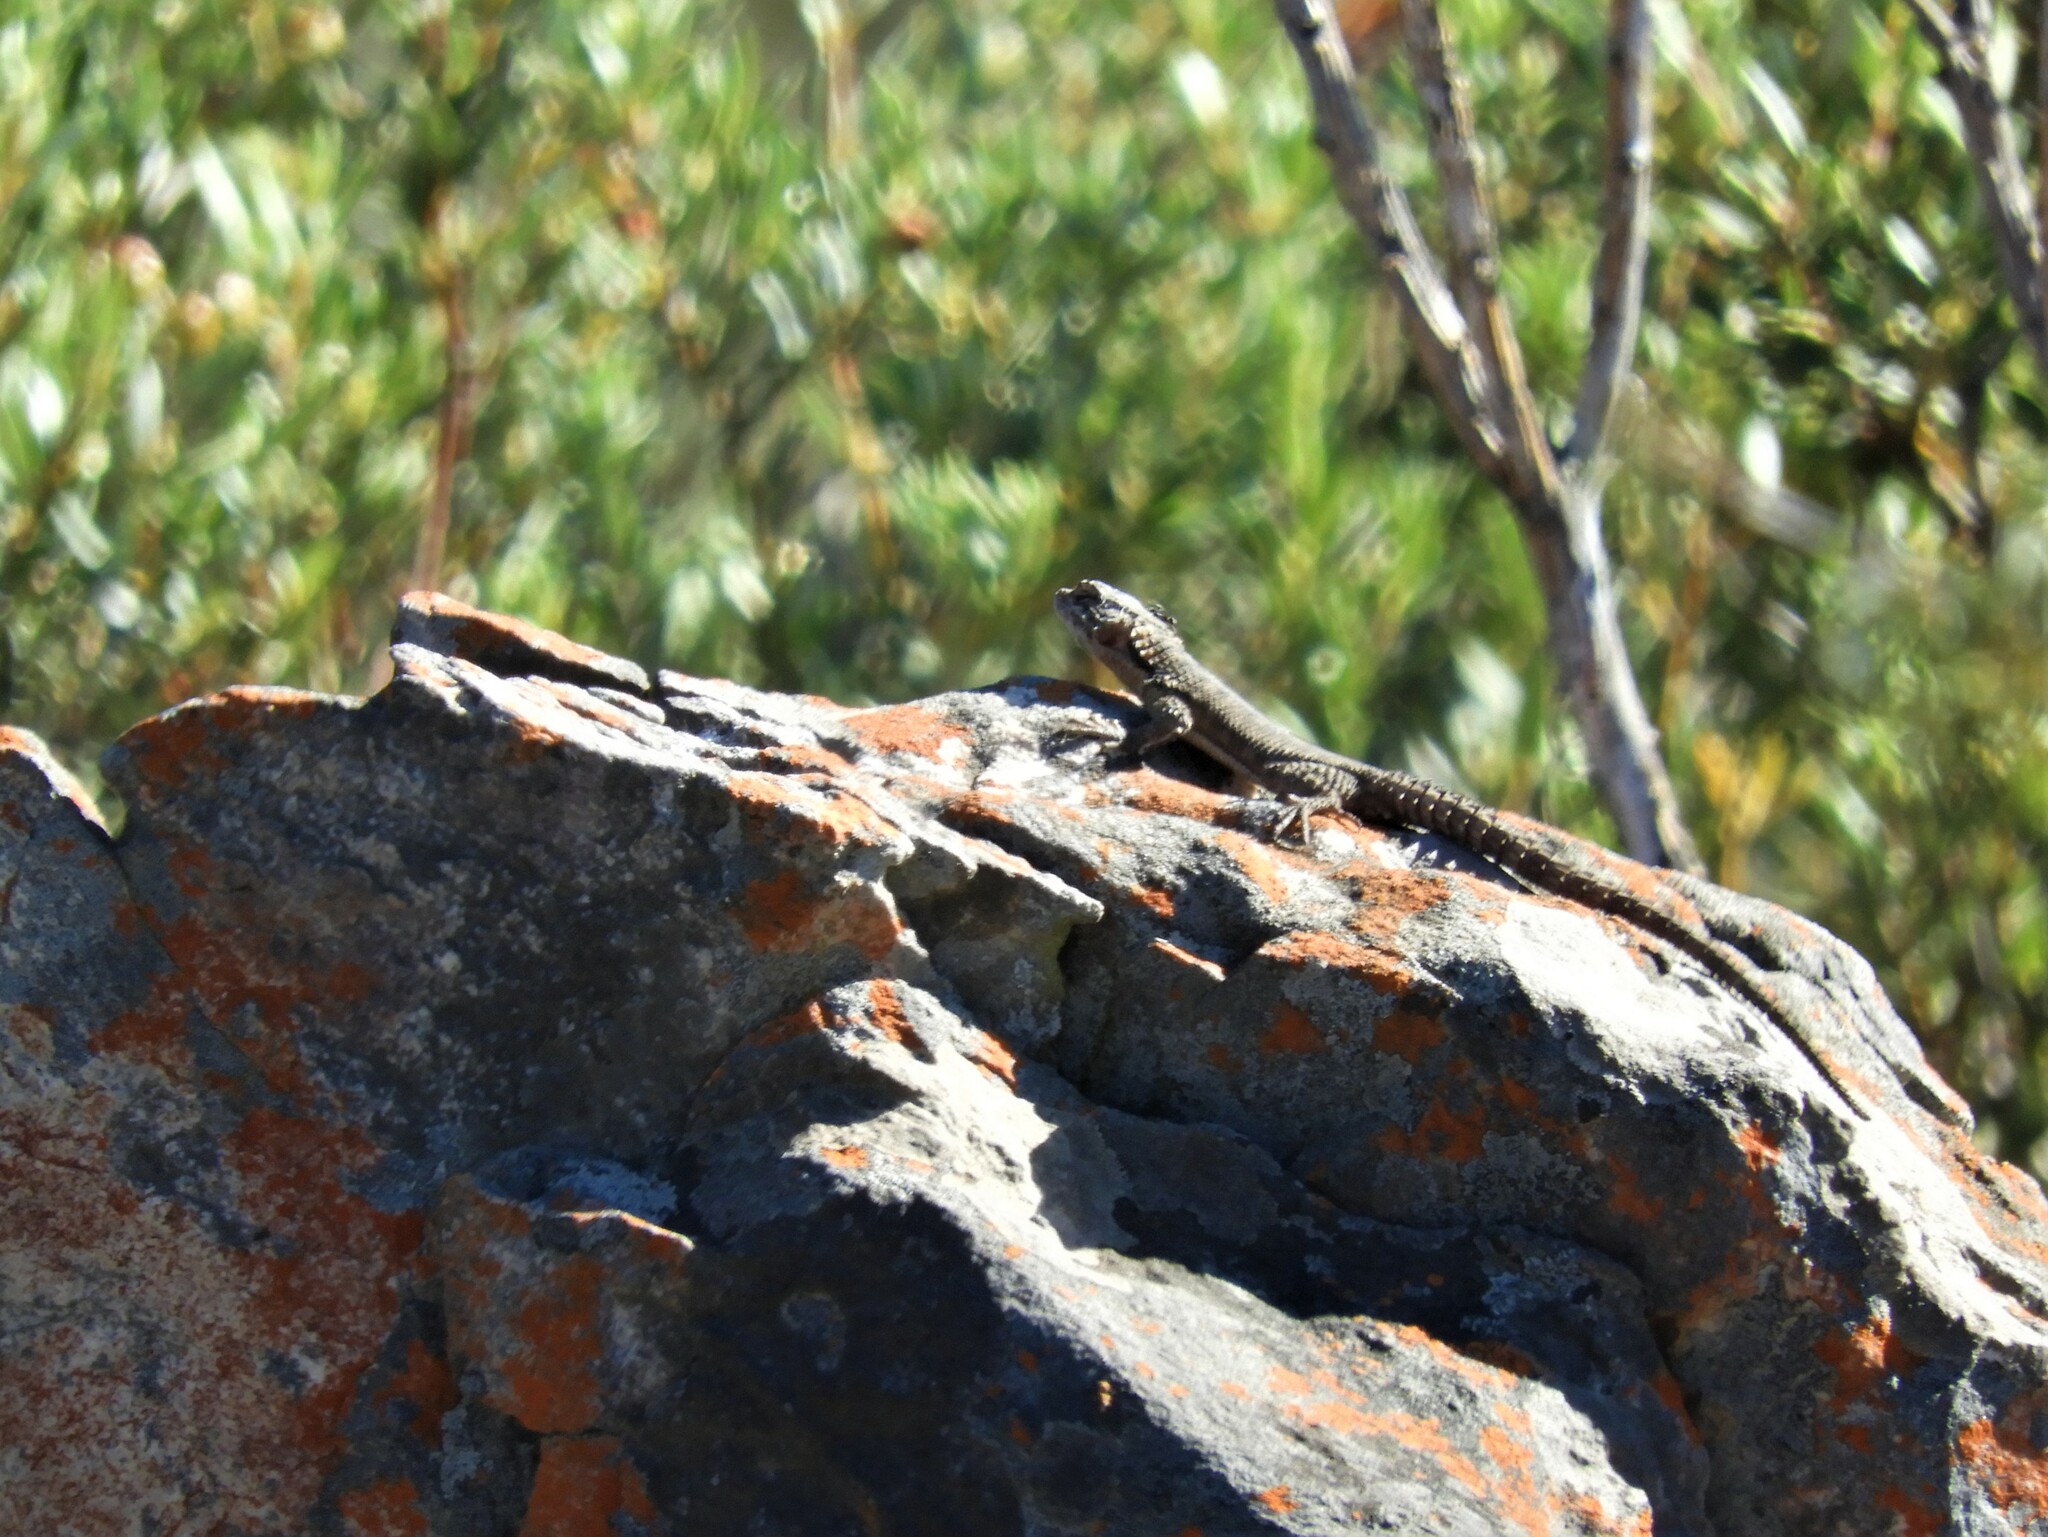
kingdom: Animalia
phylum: Chordata
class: Squamata
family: Cordylidae
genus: Karusasaurus
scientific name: Karusasaurus polyzonus
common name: Karoo girdled lizard
